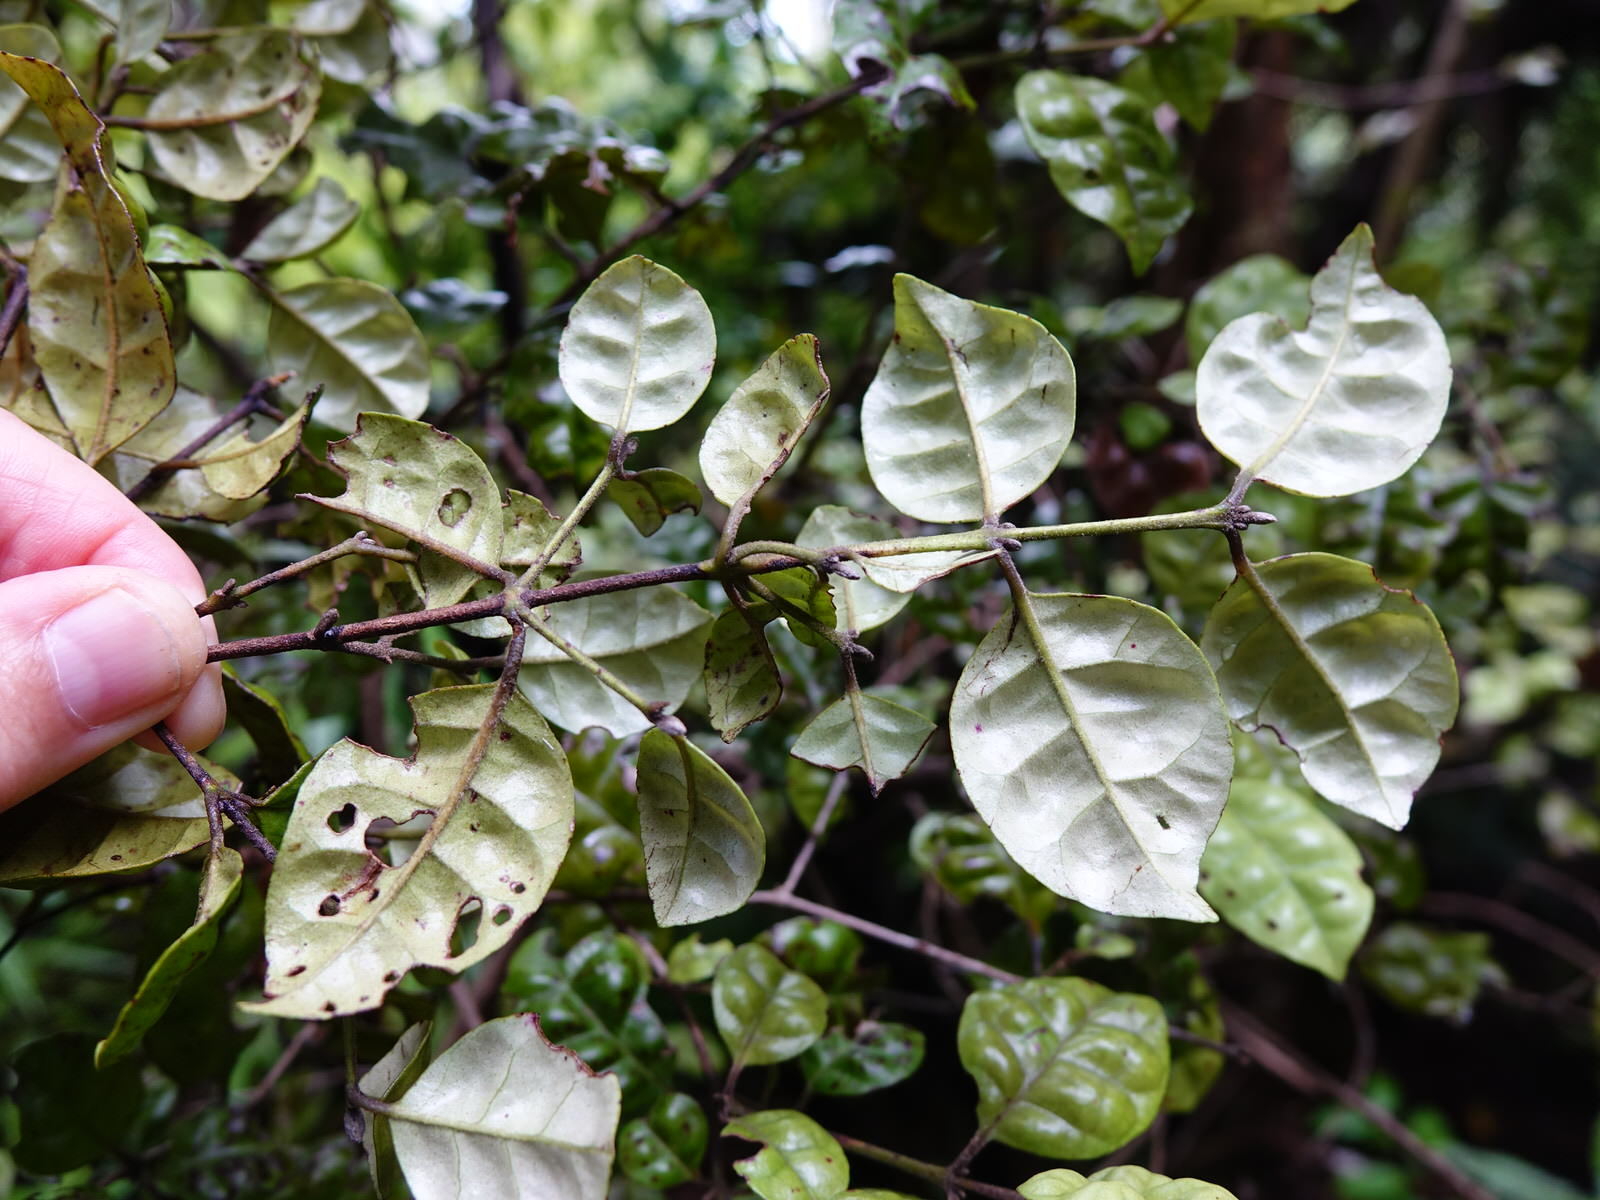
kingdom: Plantae
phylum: Tracheophyta
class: Magnoliopsida
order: Myrtales
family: Myrtaceae
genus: Lophomyrtus
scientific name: Lophomyrtus bullata
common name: Rama rama
